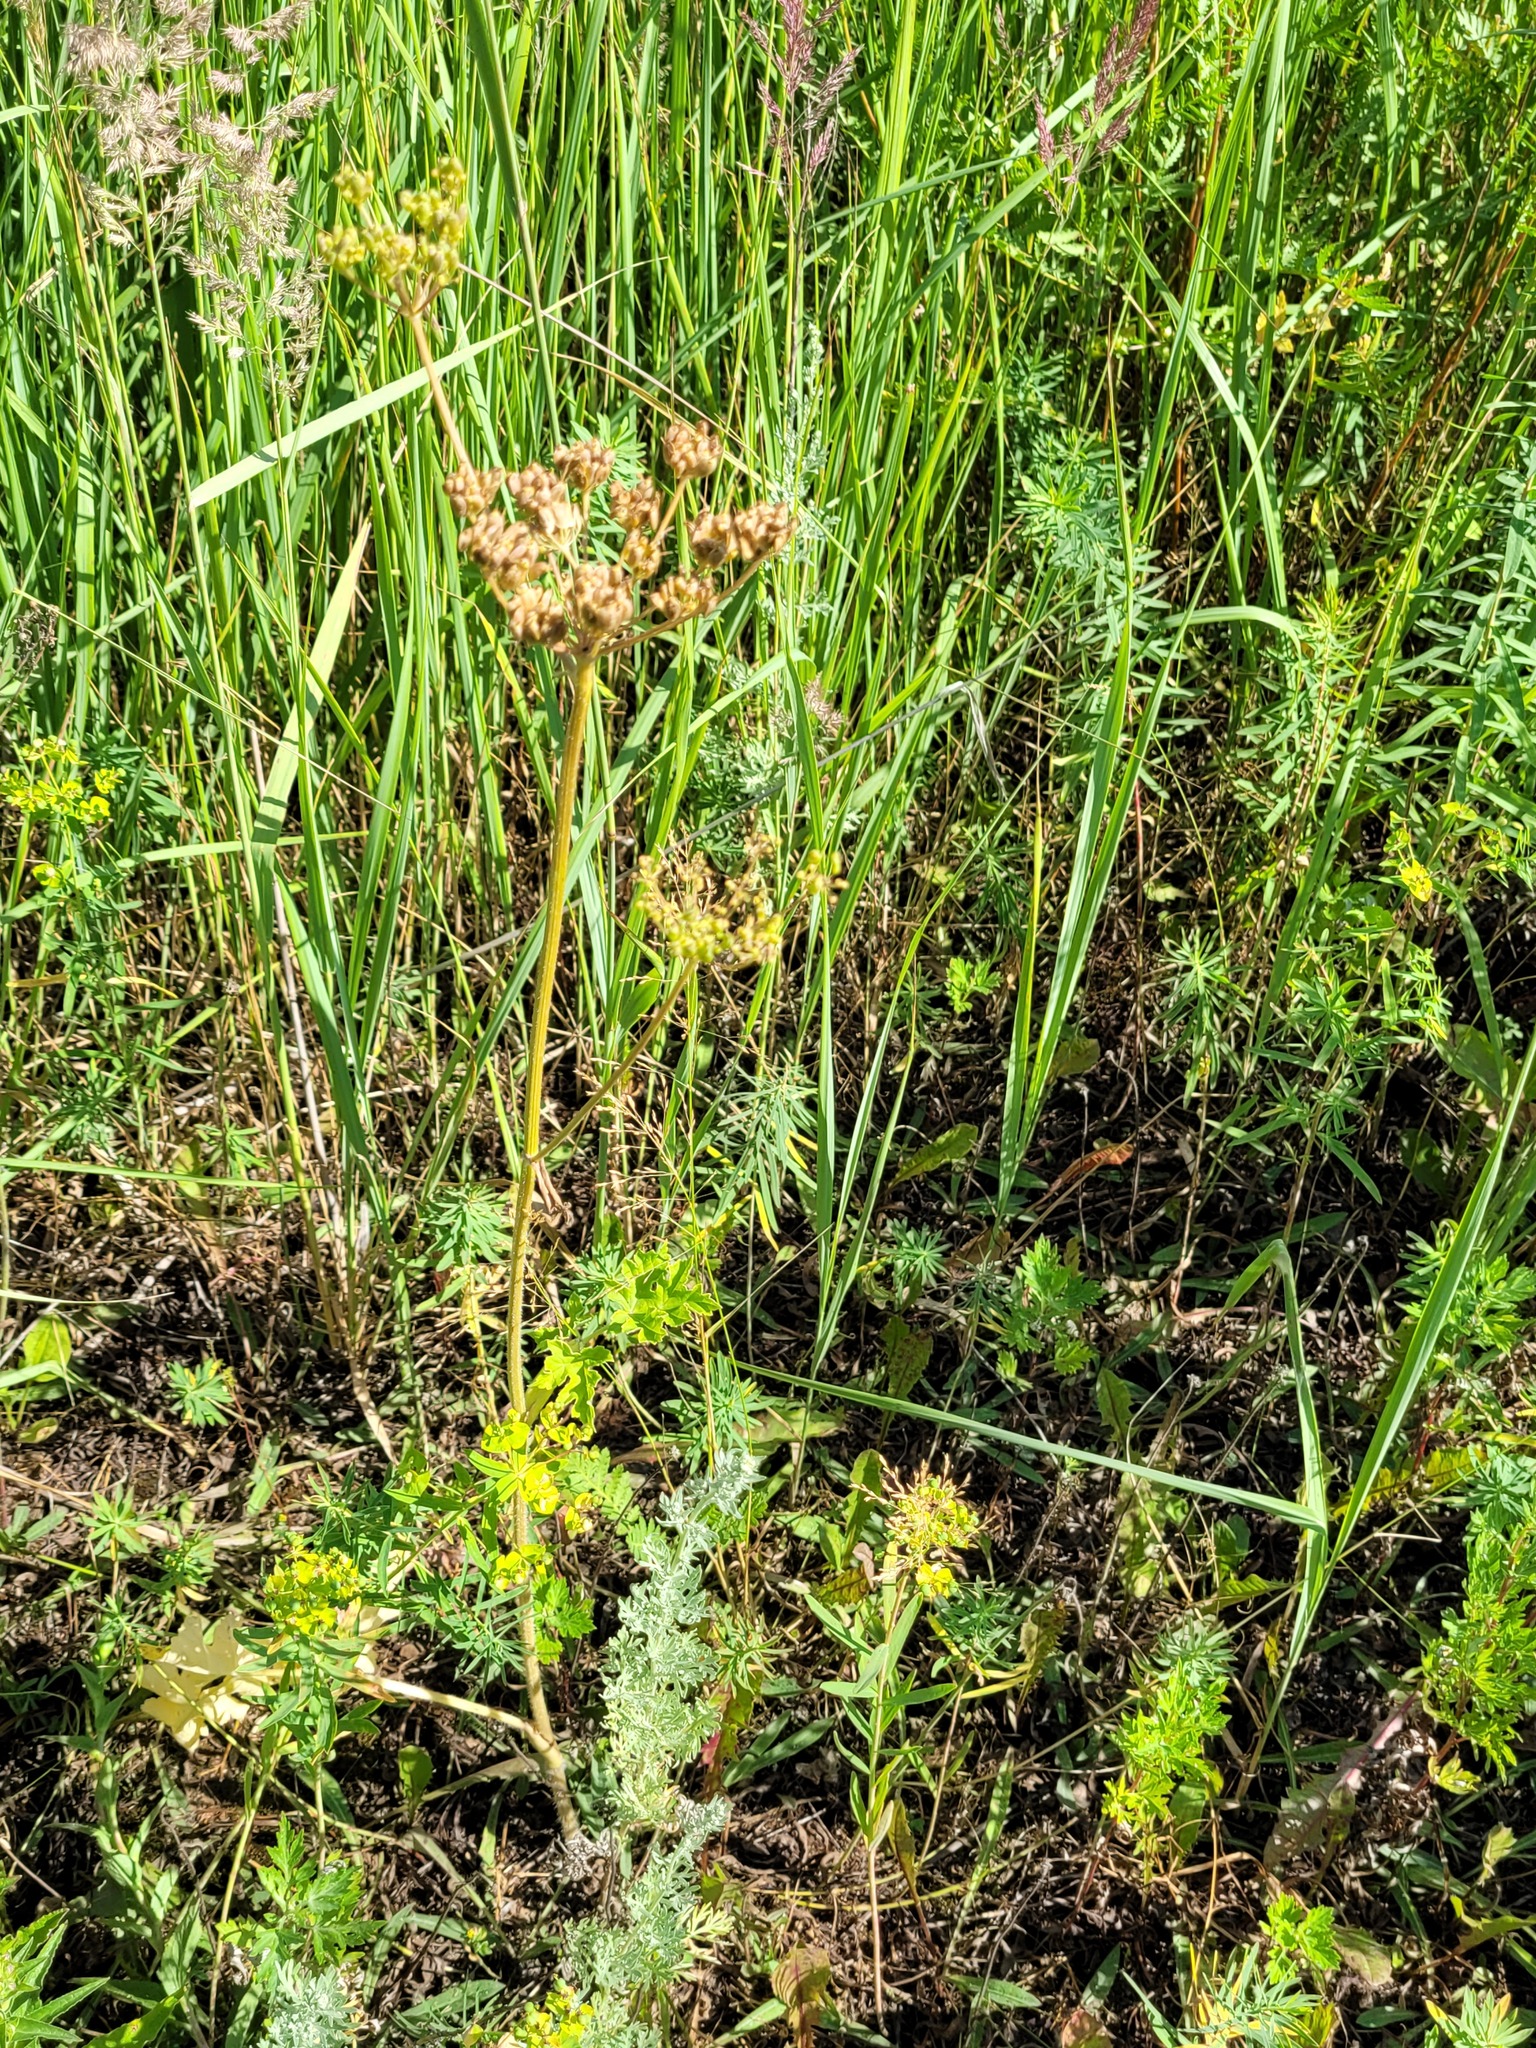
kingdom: Plantae
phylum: Tracheophyta
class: Magnoliopsida
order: Apiales
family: Apiaceae
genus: Heracleum
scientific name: Heracleum sphondylium
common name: Hogweed
